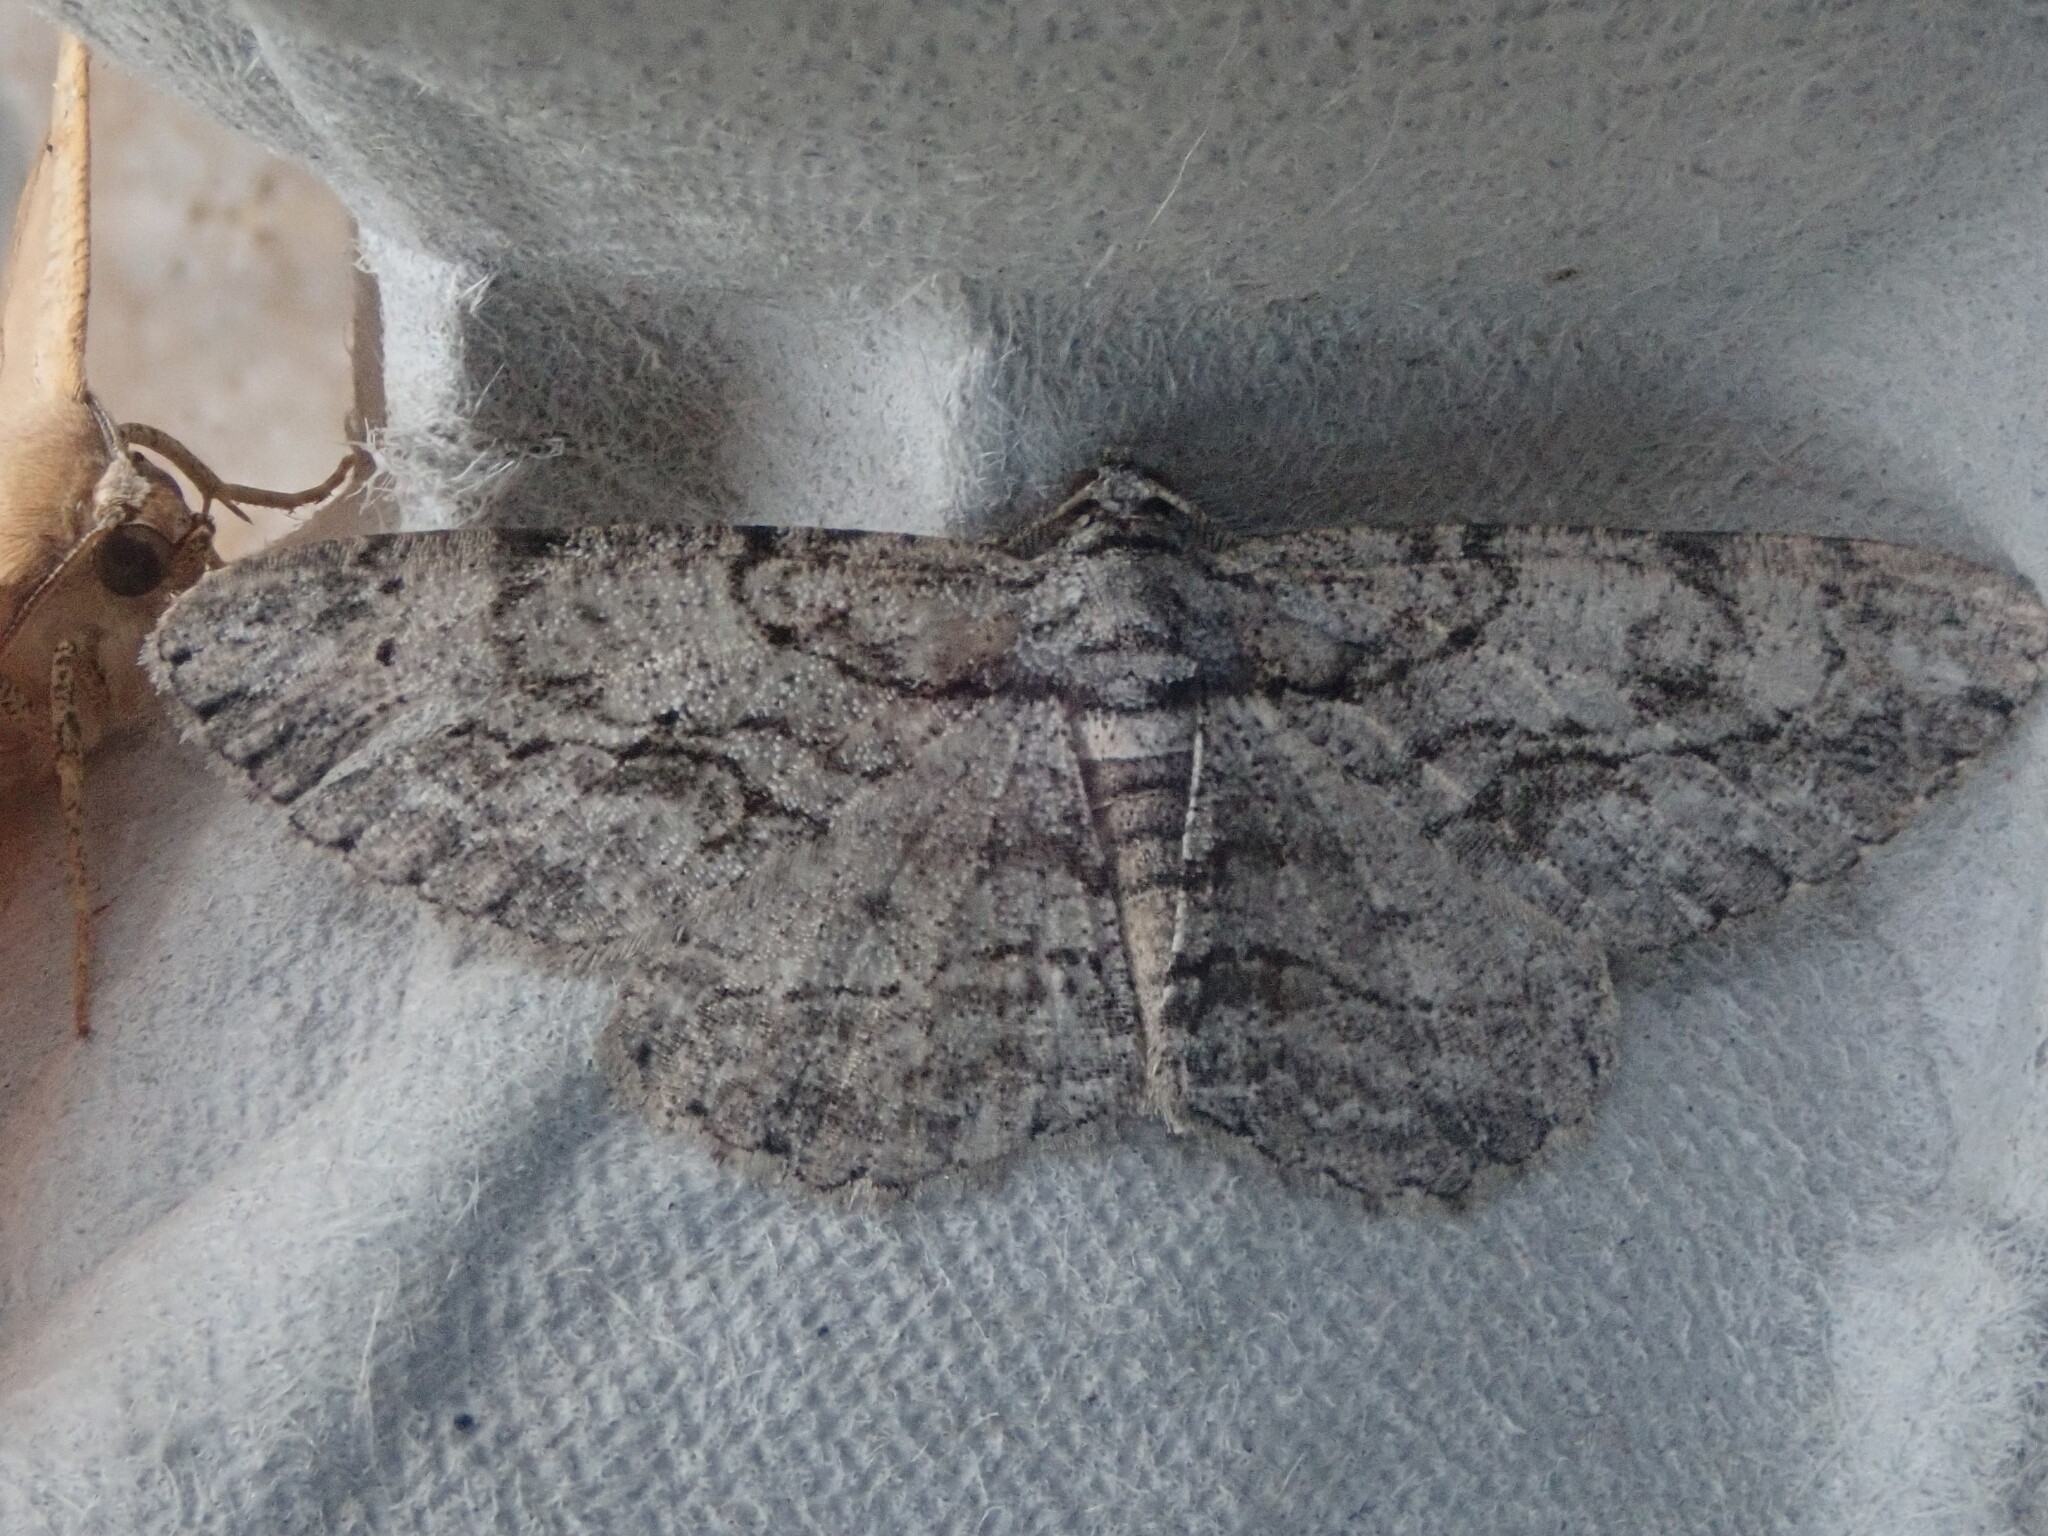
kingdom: Animalia
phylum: Arthropoda
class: Insecta
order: Lepidoptera
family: Geometridae
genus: Anavitrinella
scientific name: Anavitrinella pampinaria
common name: Common gray
